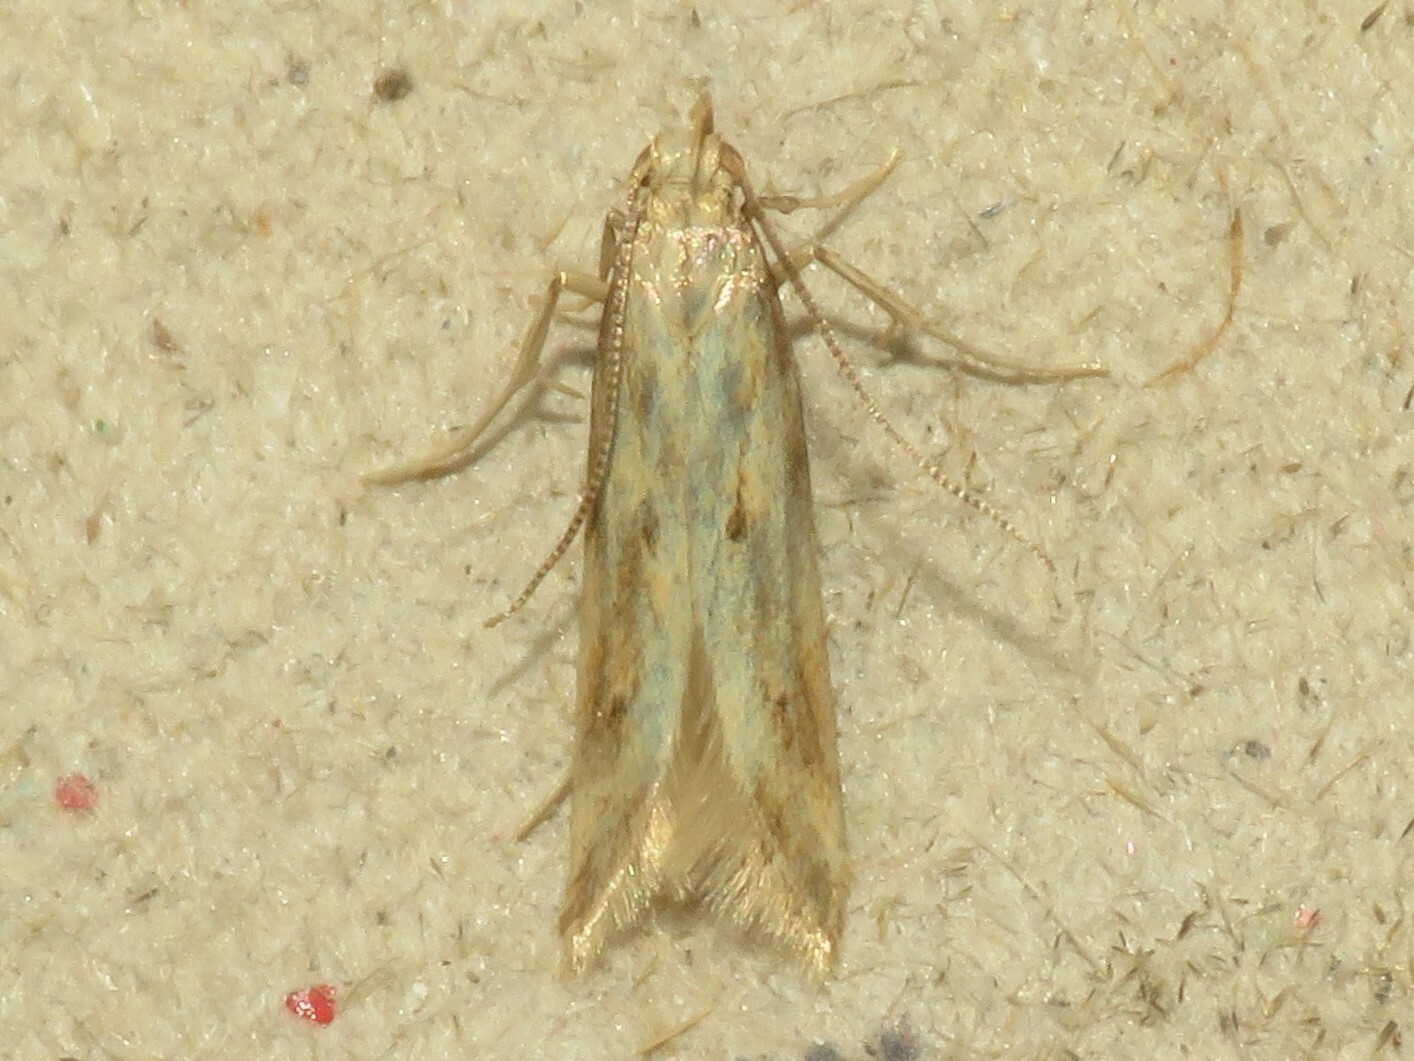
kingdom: Animalia
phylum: Arthropoda
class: Insecta
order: Lepidoptera
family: Gelechiidae
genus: Metzneria
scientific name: Metzneria lappella
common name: Burdock neb
